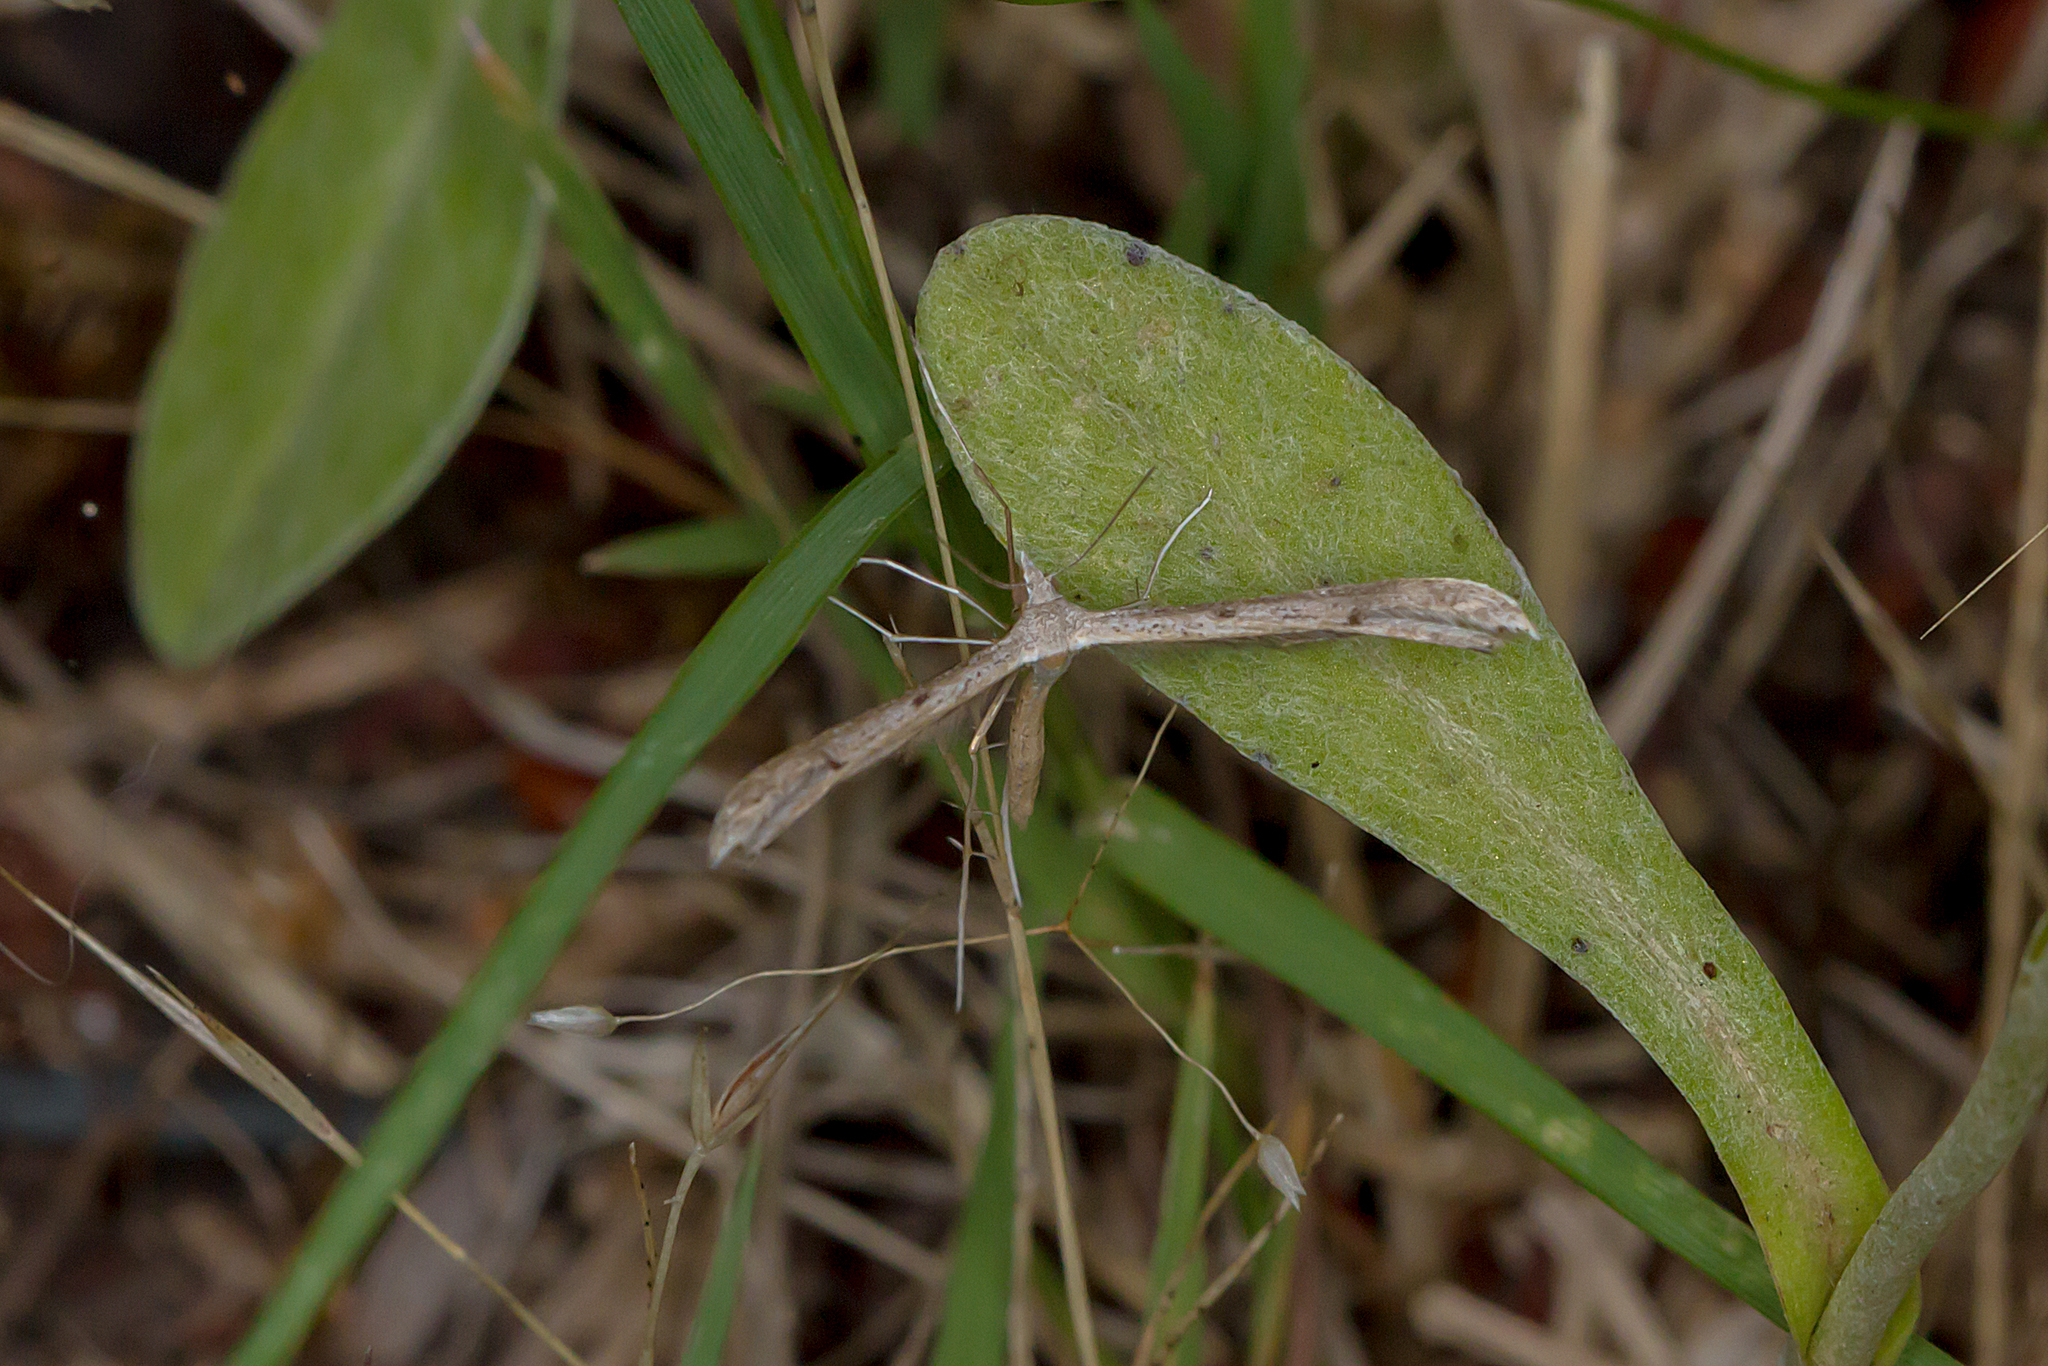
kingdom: Animalia
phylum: Arthropoda
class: Insecta
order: Lepidoptera
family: Pterophoridae
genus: Stenoptilia
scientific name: Stenoptilia zophodactylus
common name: Dowdy plume
